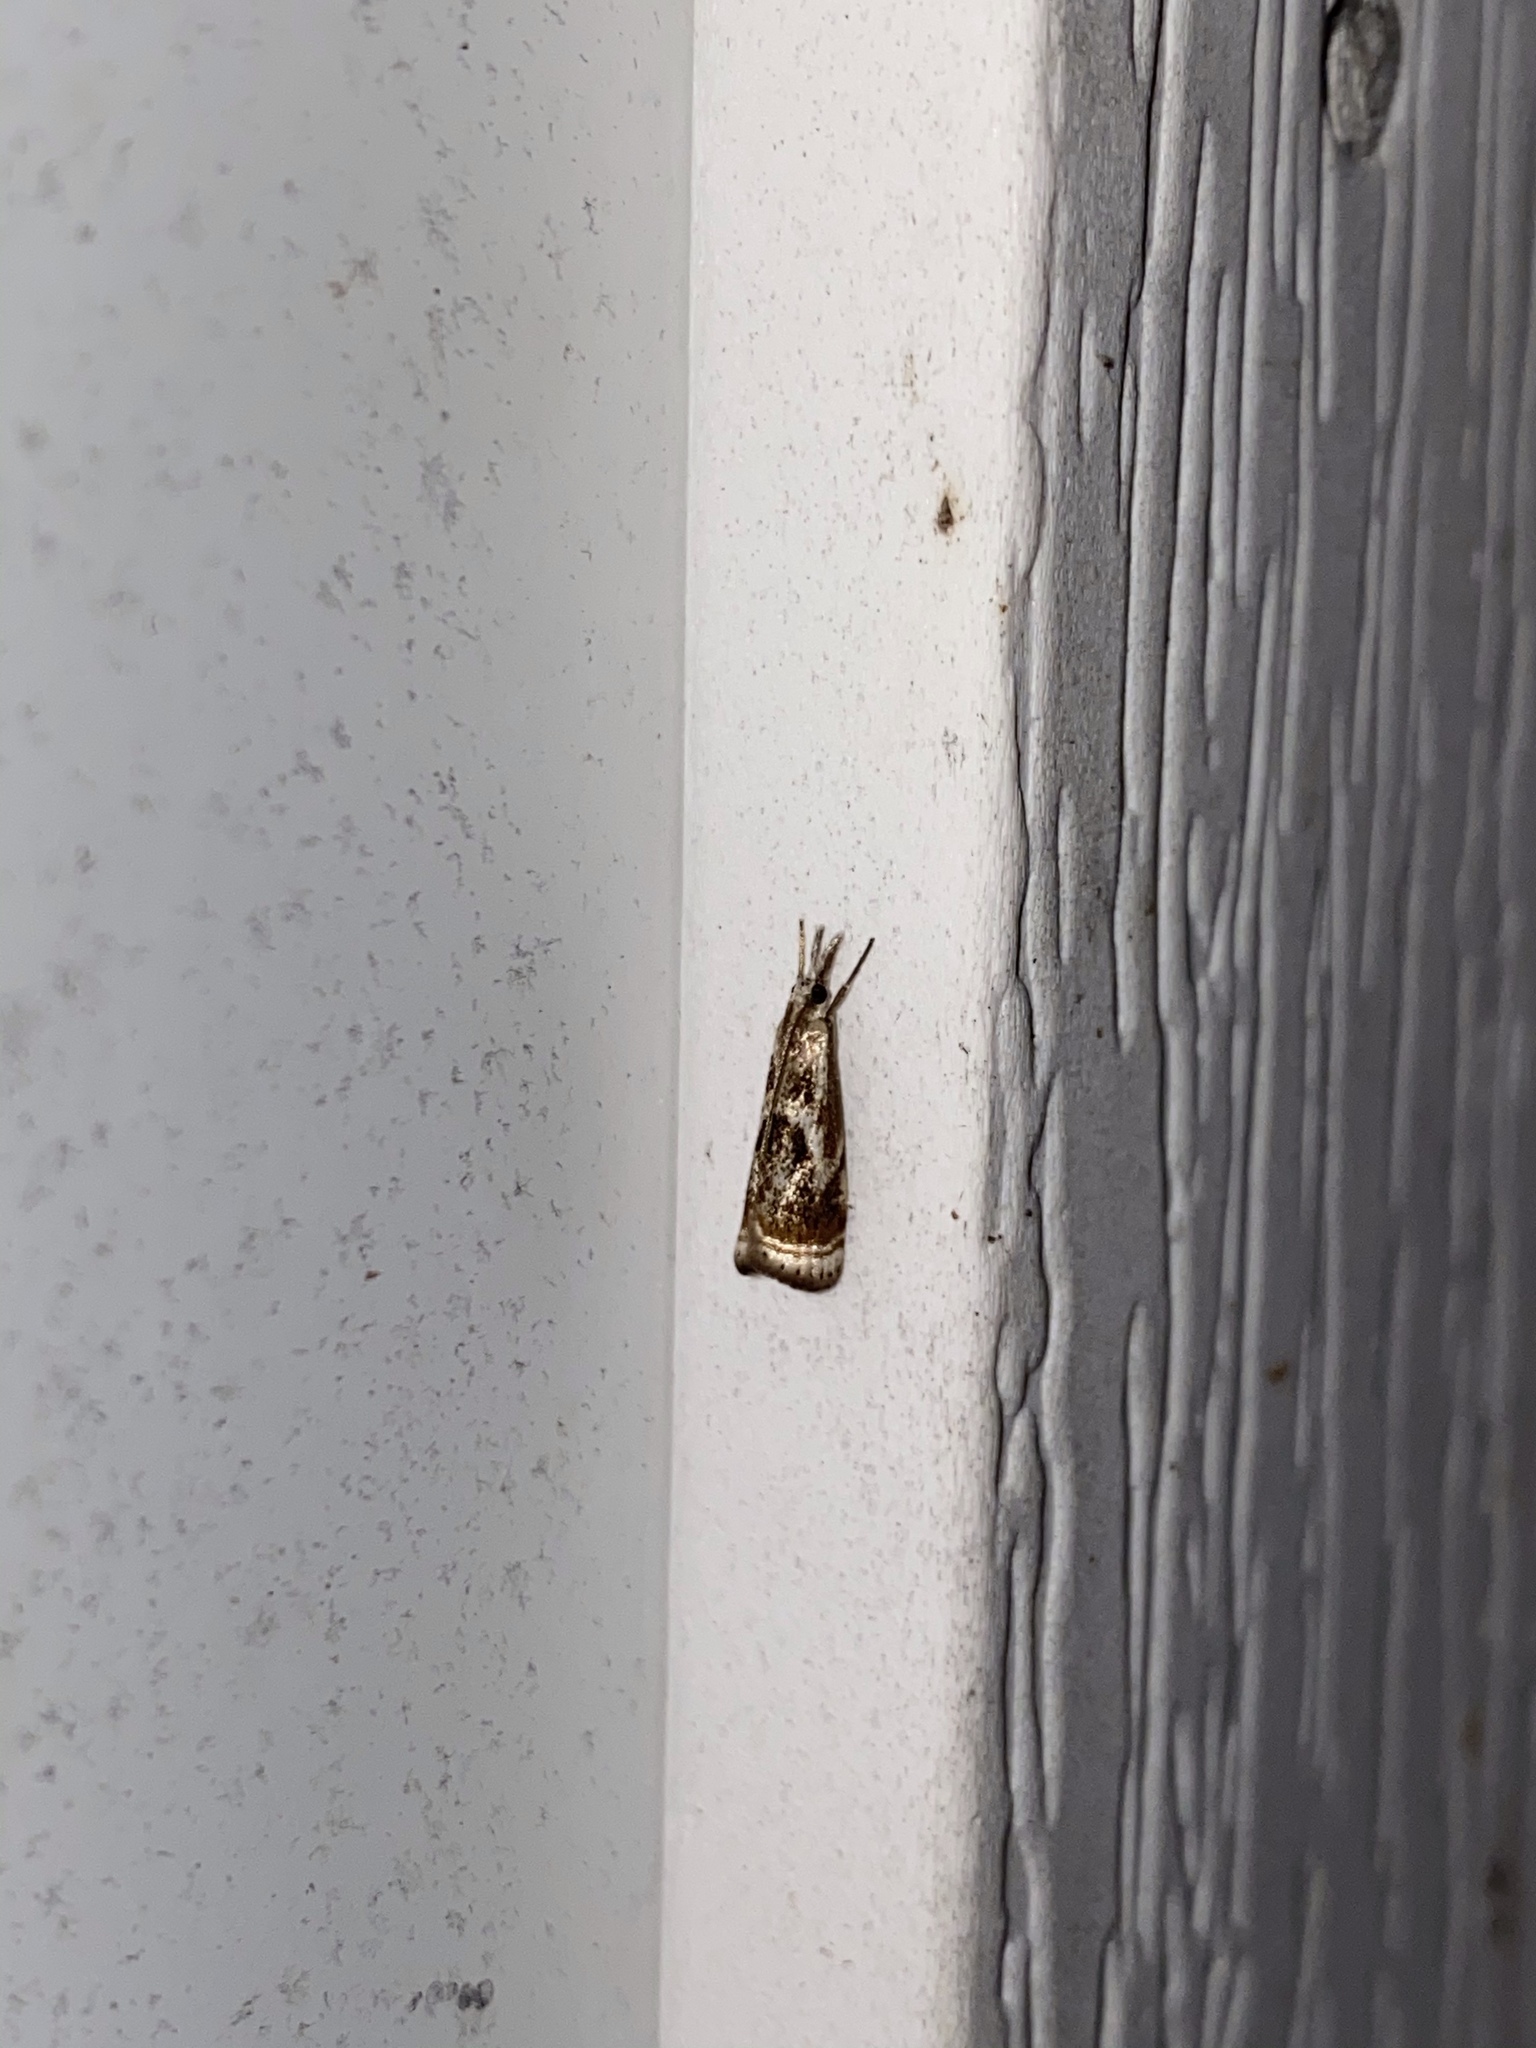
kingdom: Animalia
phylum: Arthropoda
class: Insecta
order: Lepidoptera
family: Crambidae
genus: Microcrambus
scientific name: Microcrambus elegans
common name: Elegant grass-veneer
